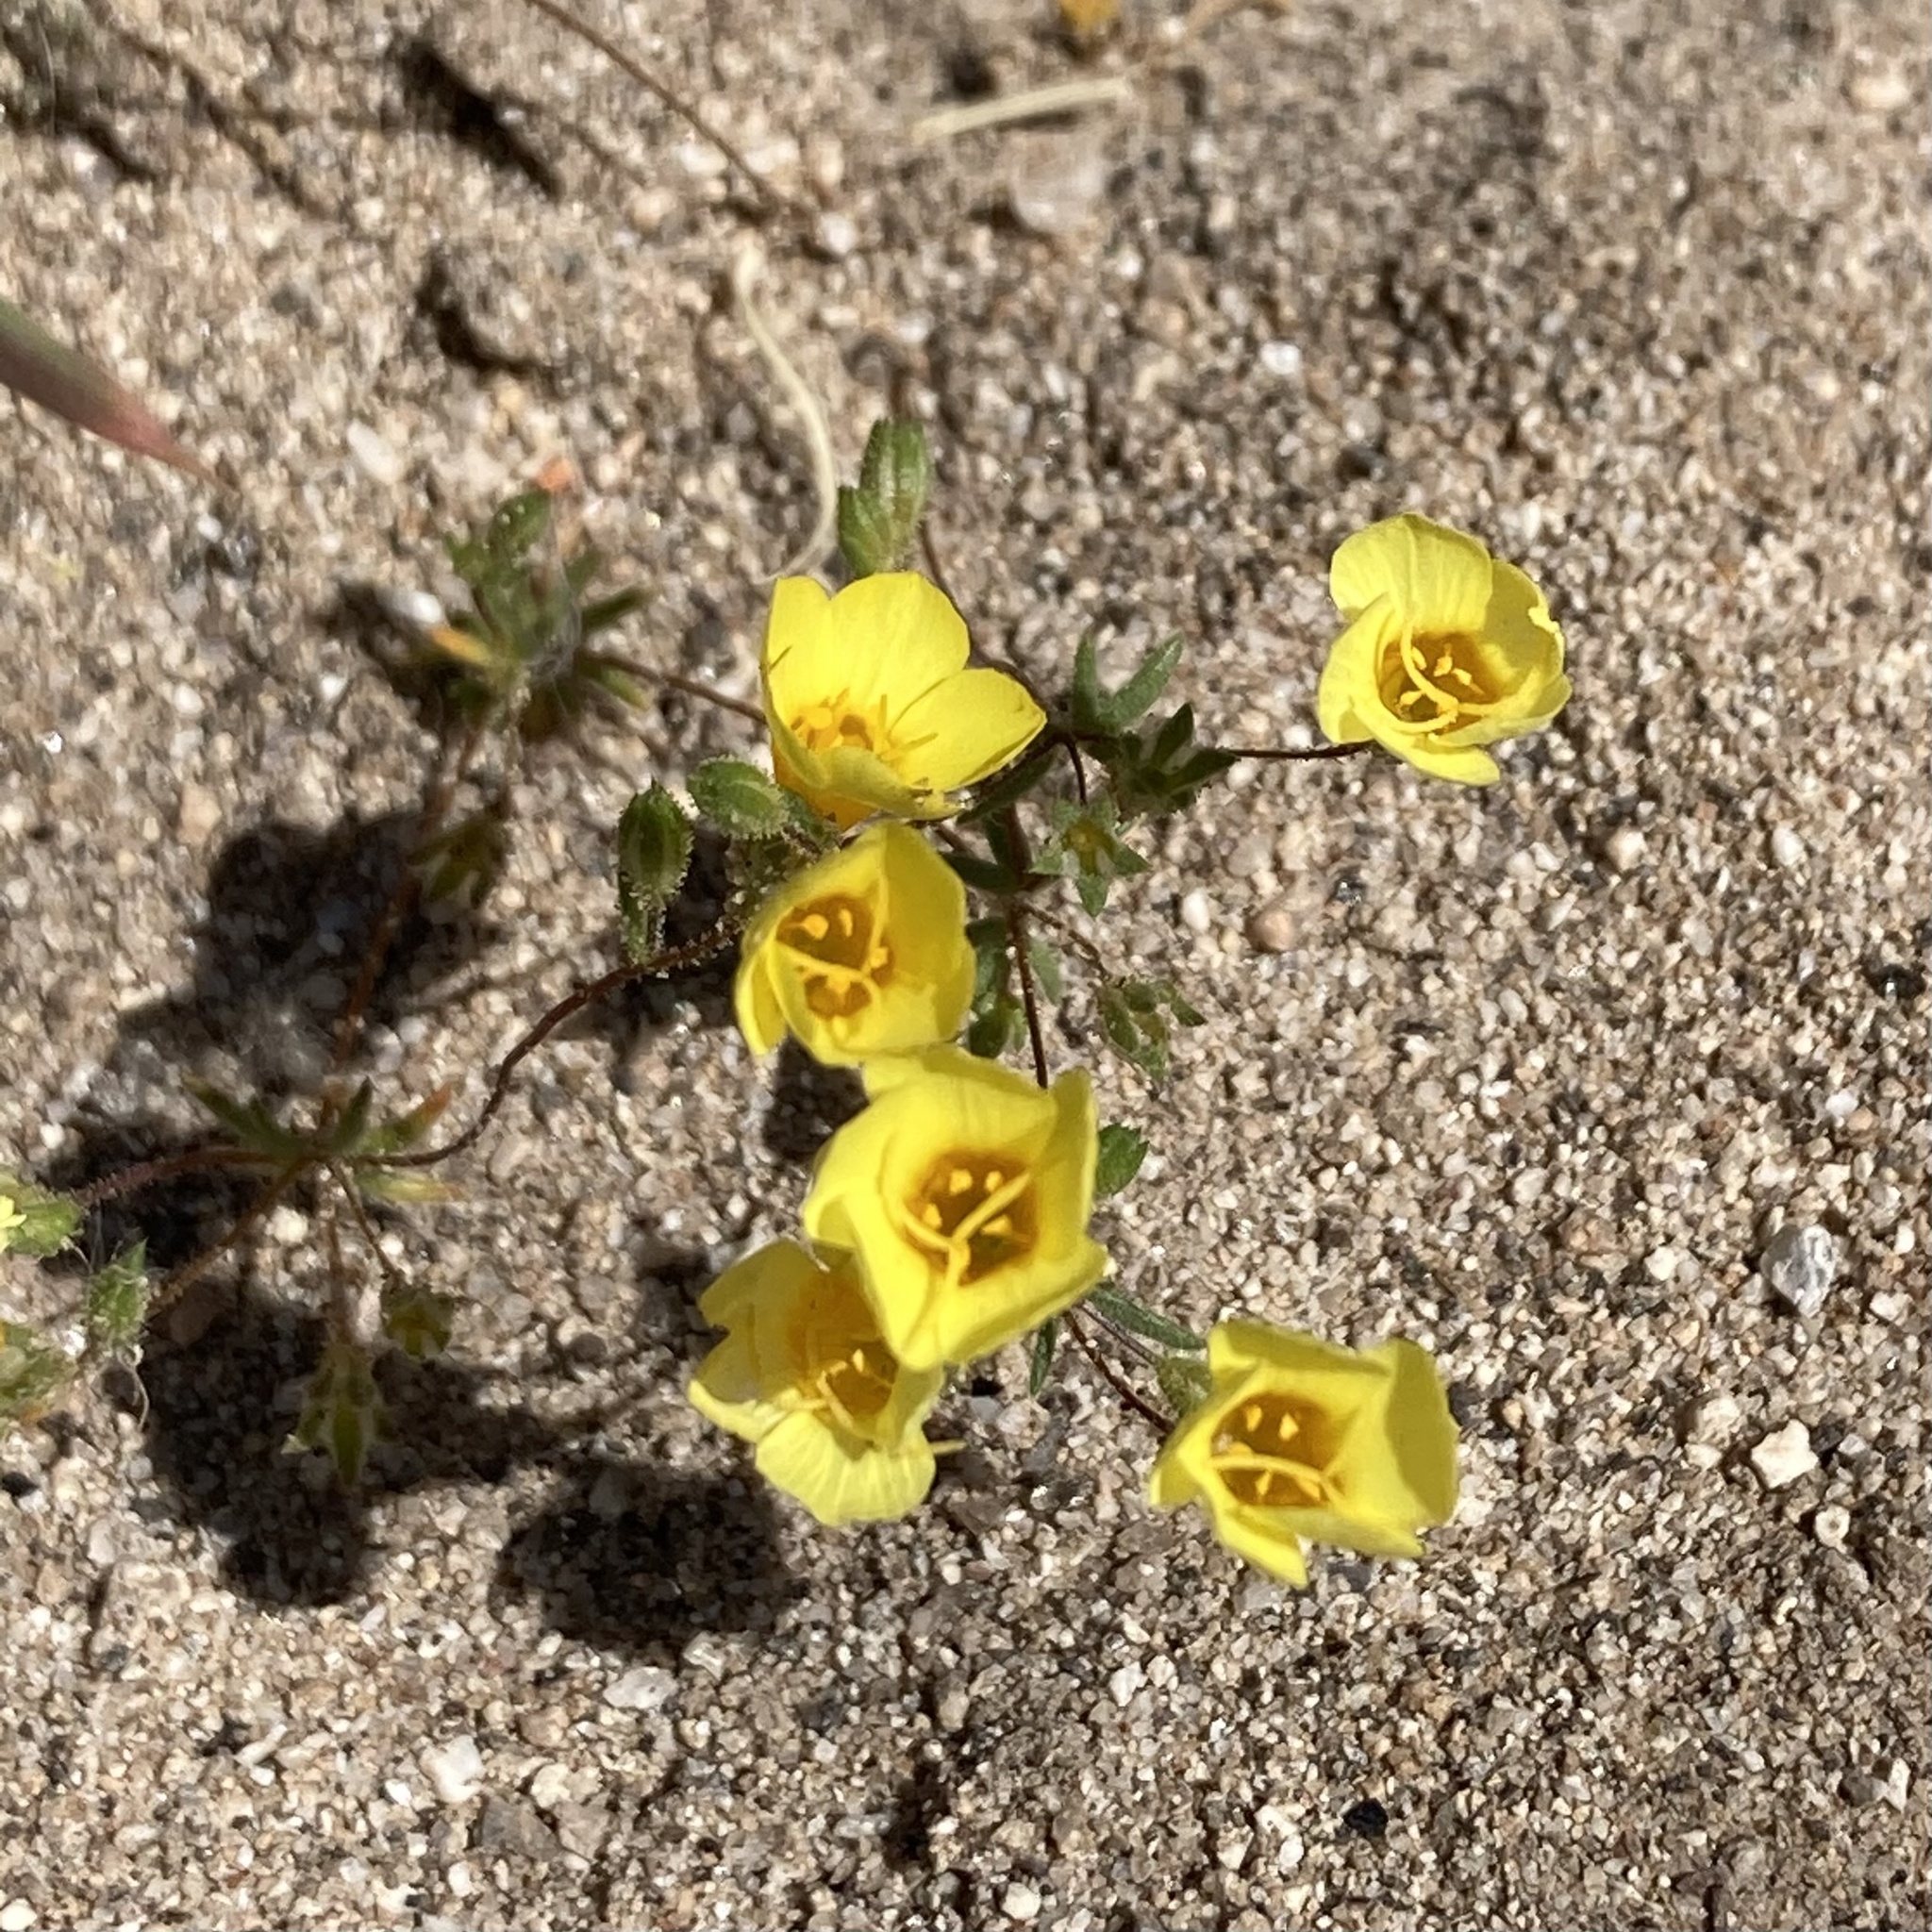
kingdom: Plantae
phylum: Tracheophyta
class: Magnoliopsida
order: Ericales
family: Polemoniaceae
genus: Leptosiphon
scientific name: Leptosiphon chrysanthus
